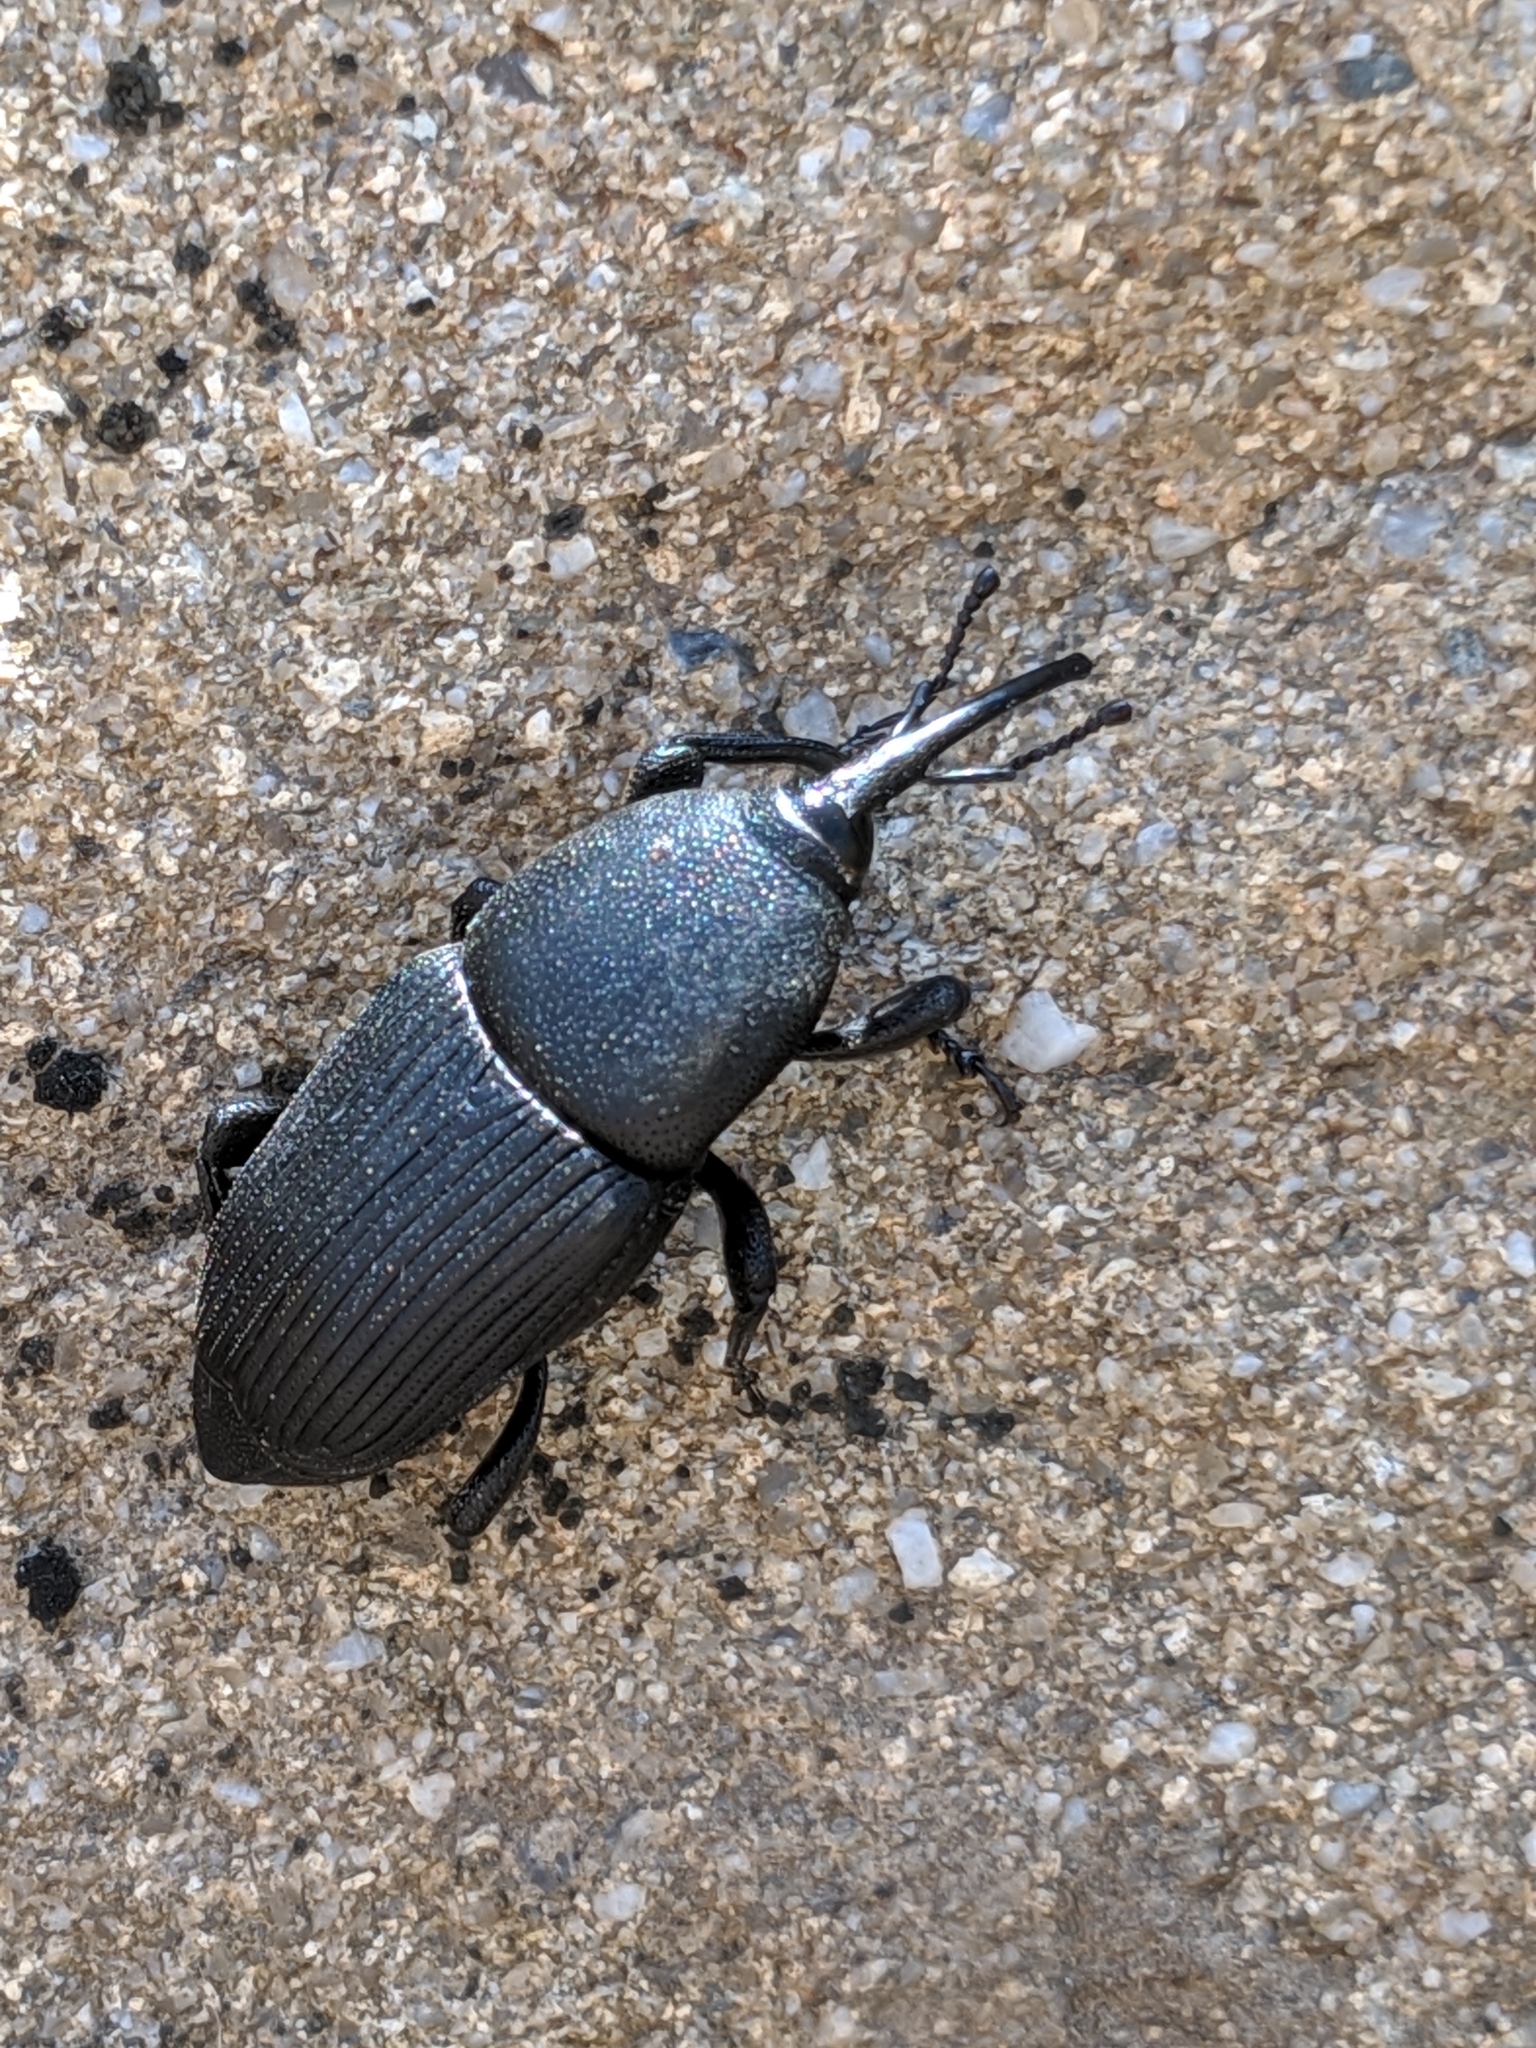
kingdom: Animalia
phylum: Arthropoda
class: Insecta
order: Coleoptera
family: Dryophthoridae
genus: Scyphophorus
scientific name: Scyphophorus yuccae
